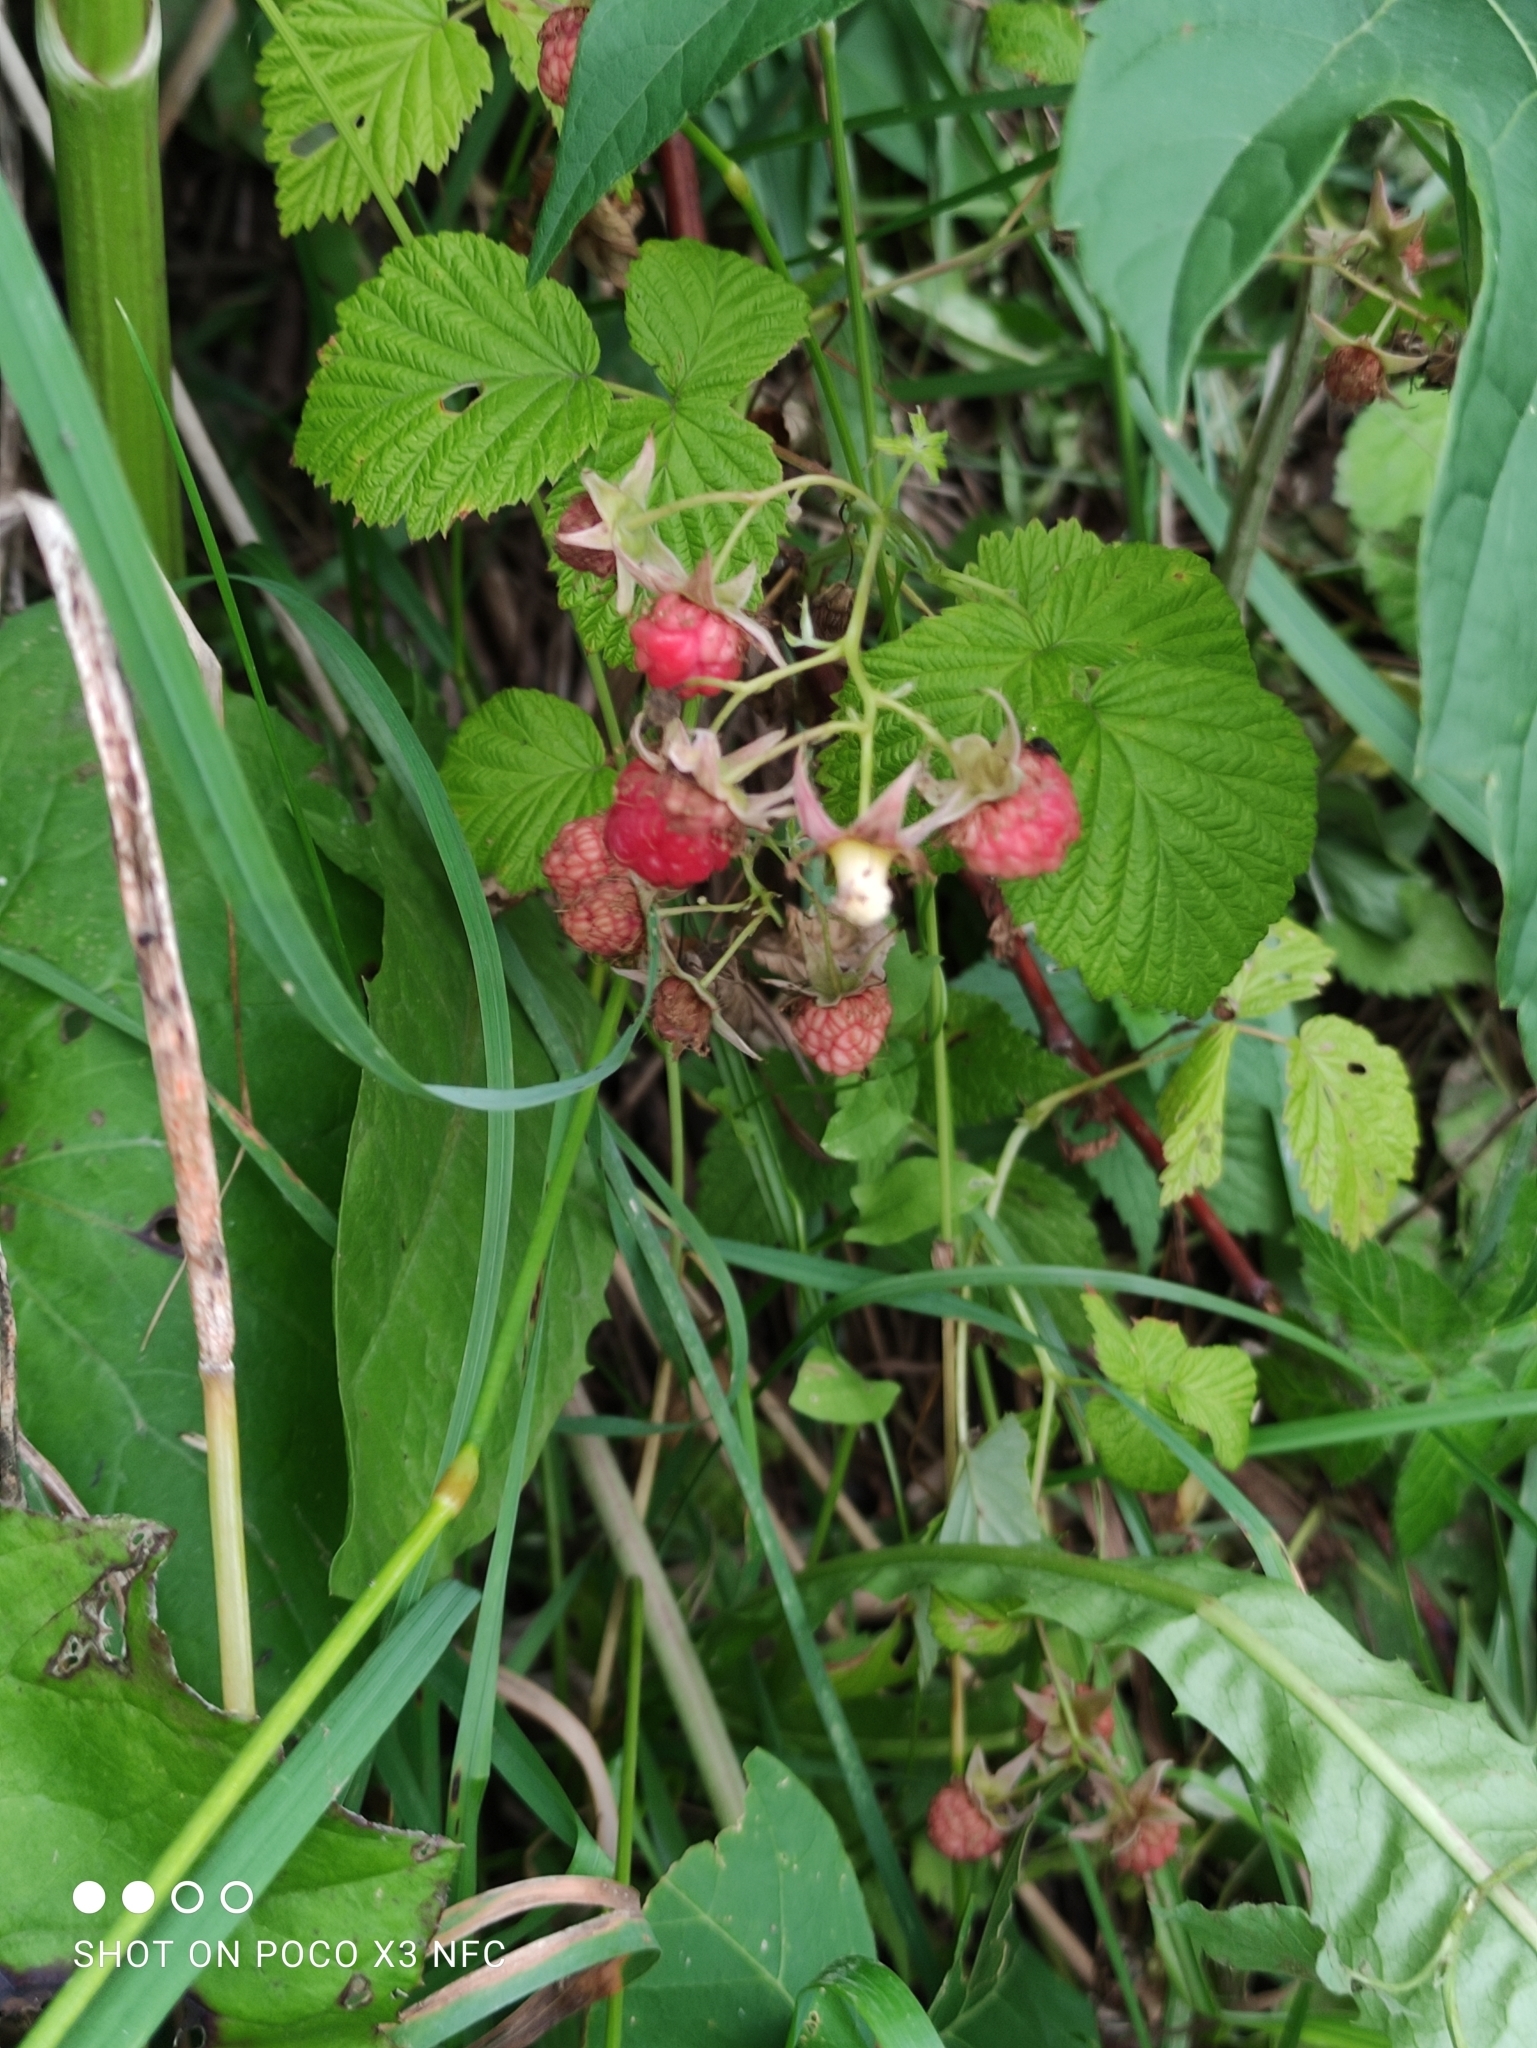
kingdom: Plantae
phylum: Tracheophyta
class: Magnoliopsida
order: Rosales
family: Rosaceae
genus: Rubus
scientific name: Rubus idaeus
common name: Raspberry
